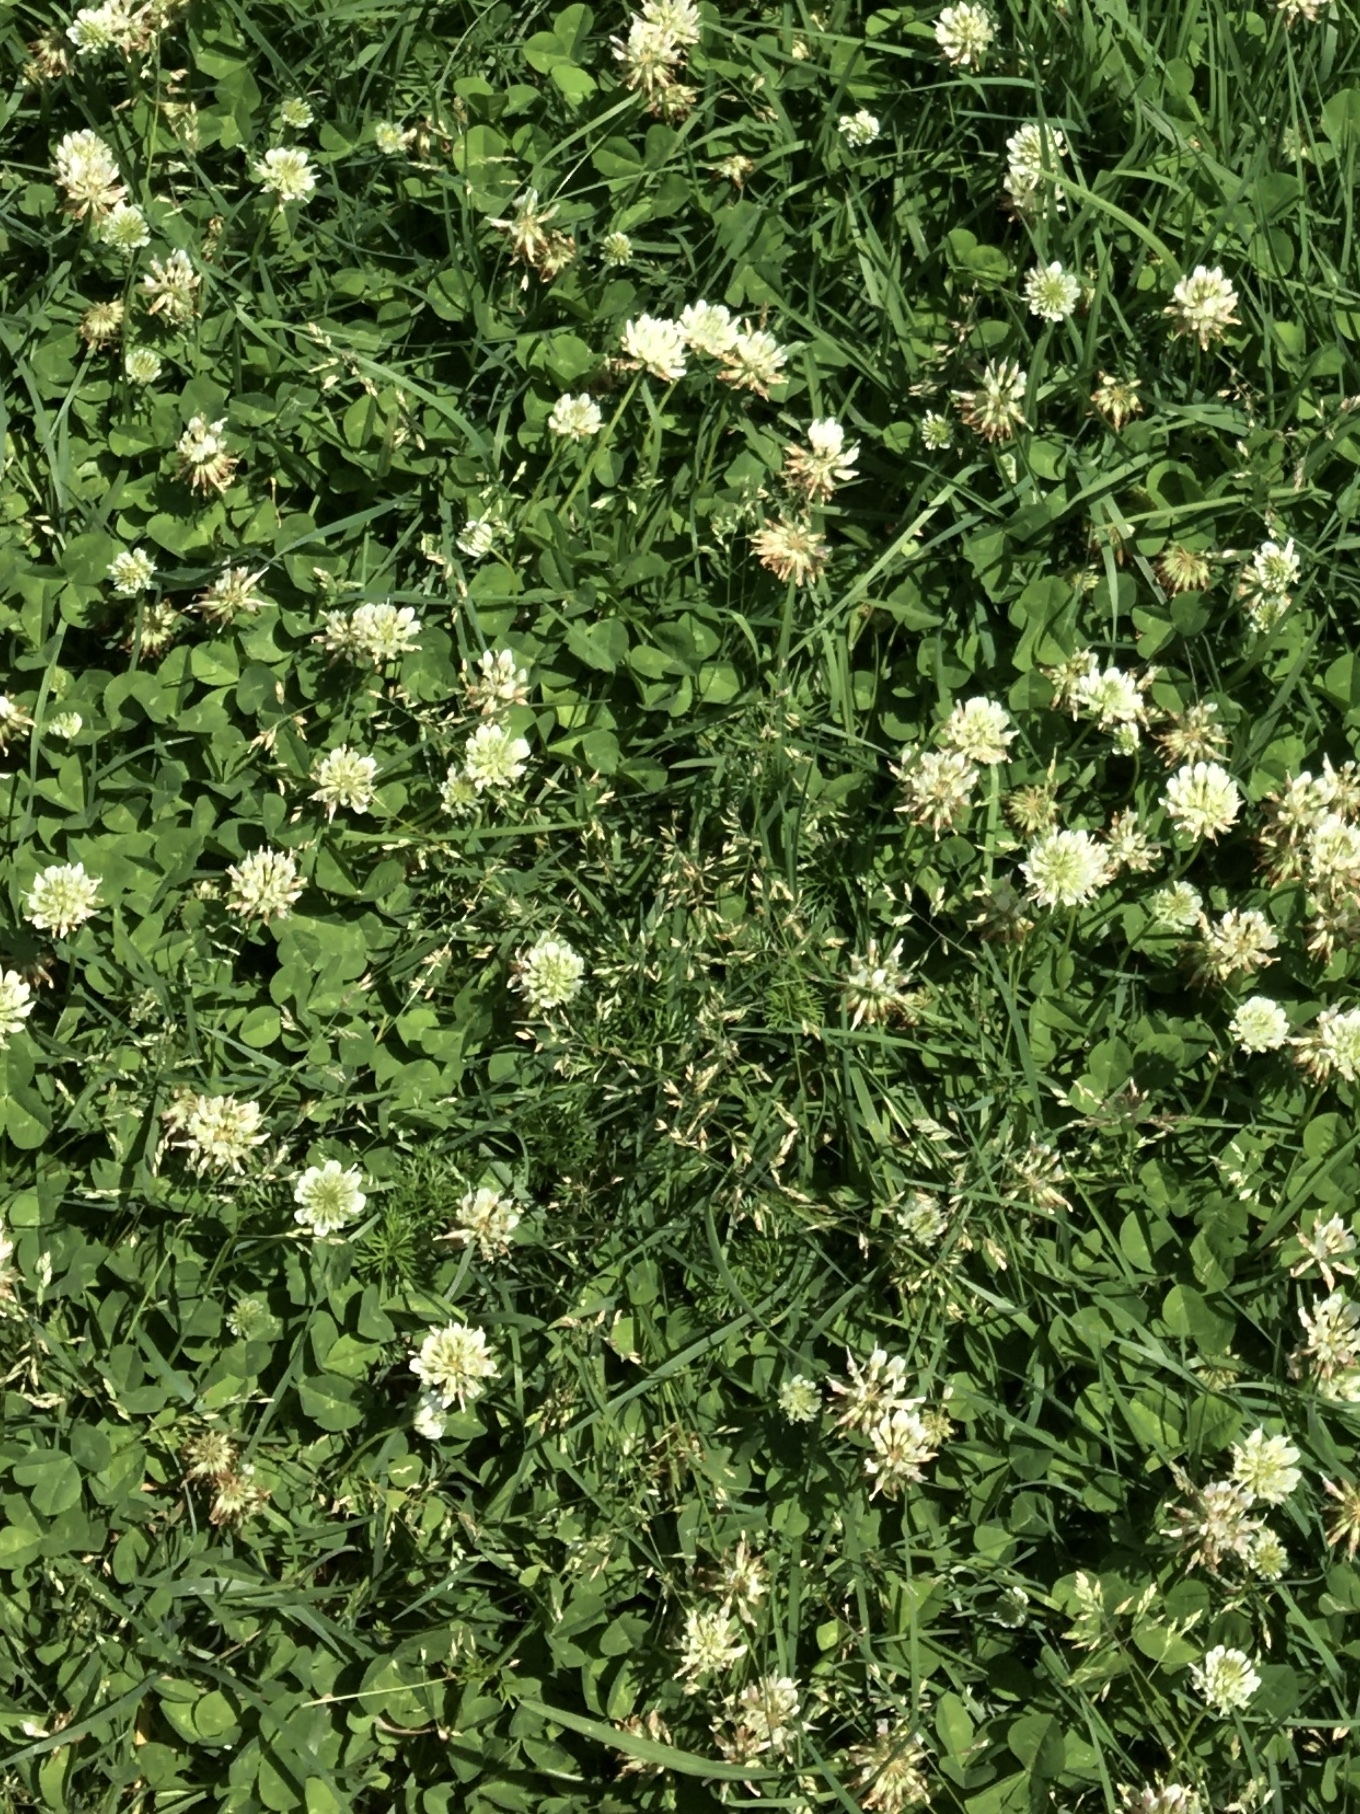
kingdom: Plantae
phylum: Tracheophyta
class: Magnoliopsida
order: Fabales
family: Fabaceae
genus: Trifolium
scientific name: Trifolium repens
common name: White clover
